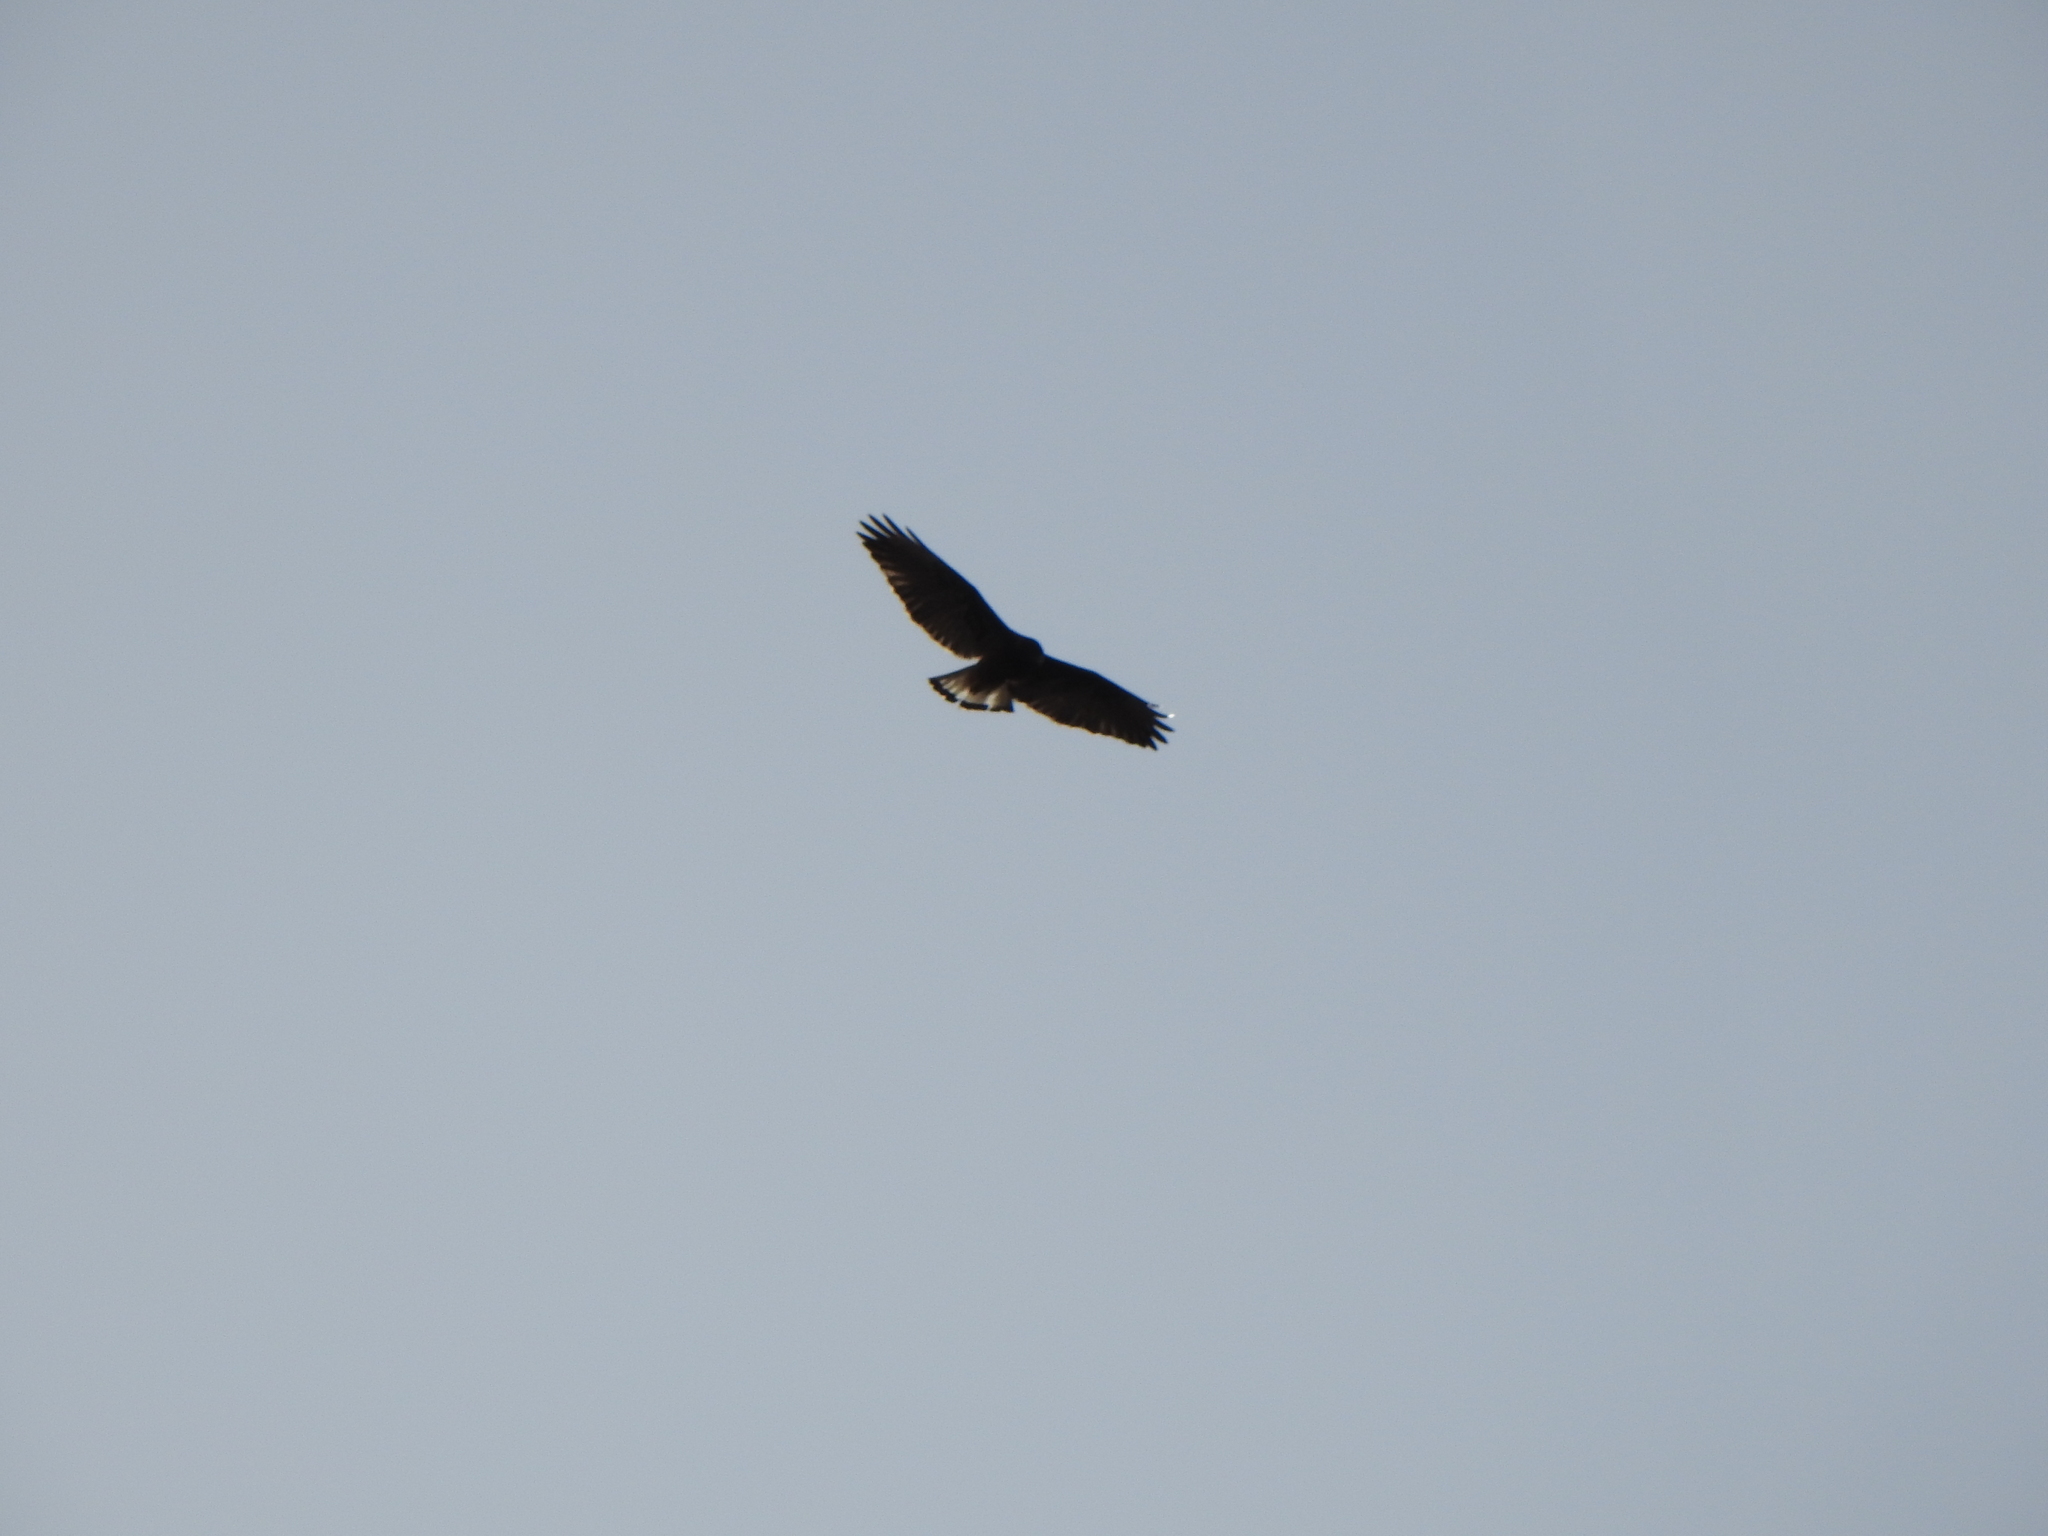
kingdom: Animalia
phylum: Chordata
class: Aves
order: Accipitriformes
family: Accipitridae
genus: Buteo
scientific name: Buteo polyosoma
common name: Variable hawk
